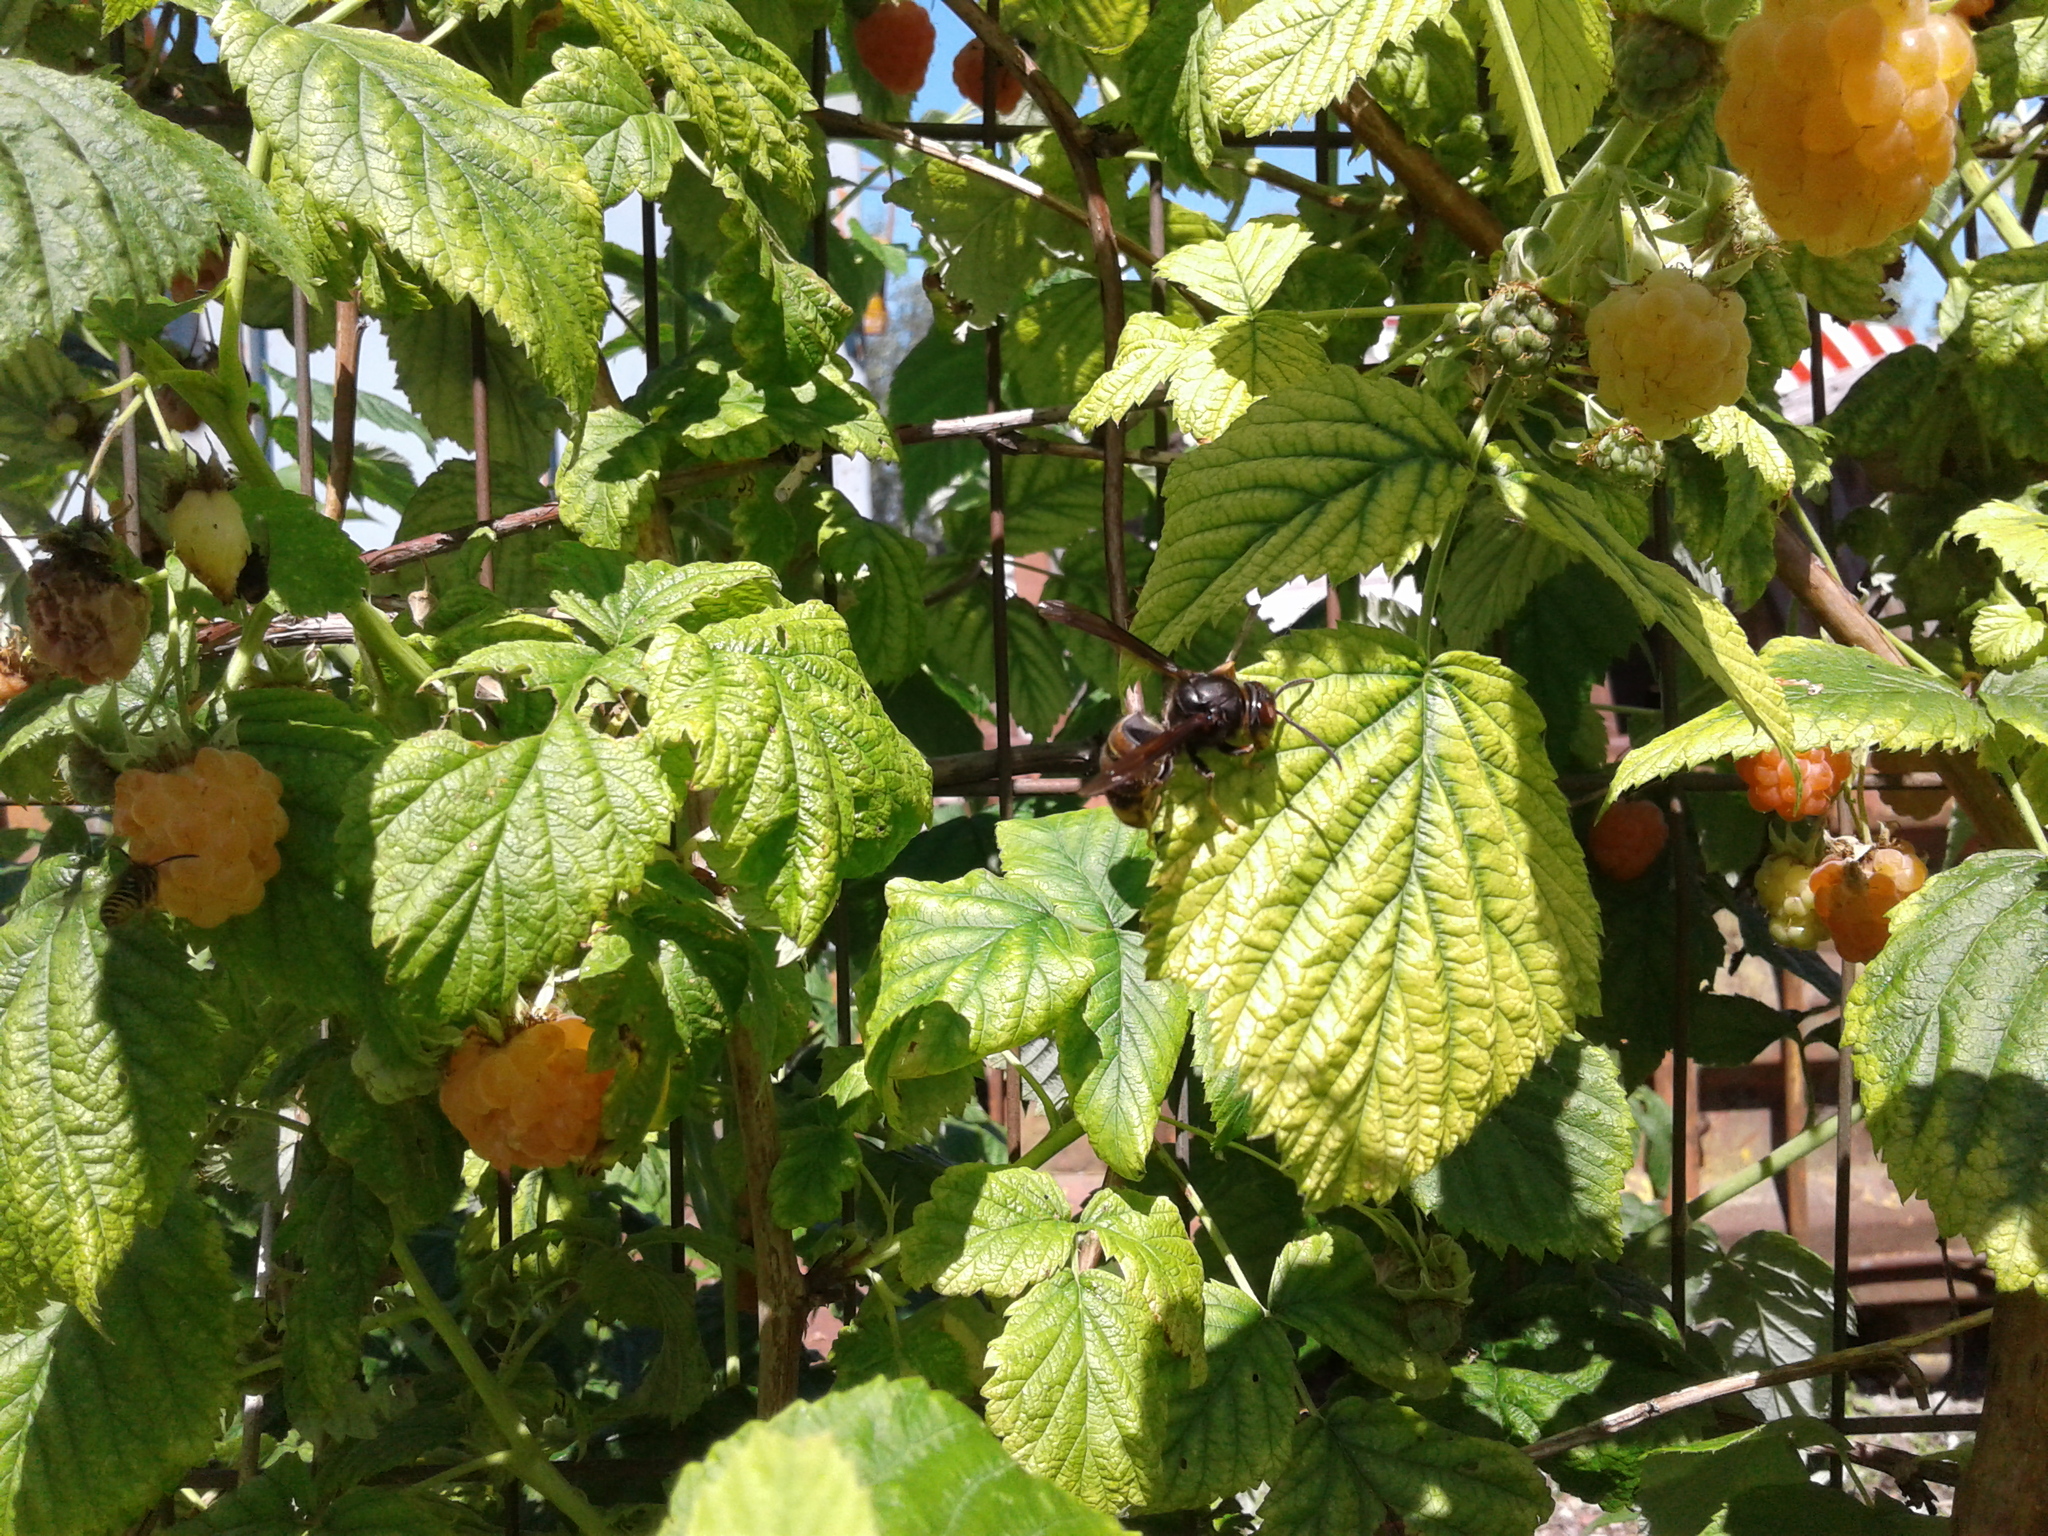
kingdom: Animalia
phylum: Arthropoda
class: Insecta
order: Hymenoptera
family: Vespidae
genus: Vespa
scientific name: Vespa velutina
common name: Asian hornet
